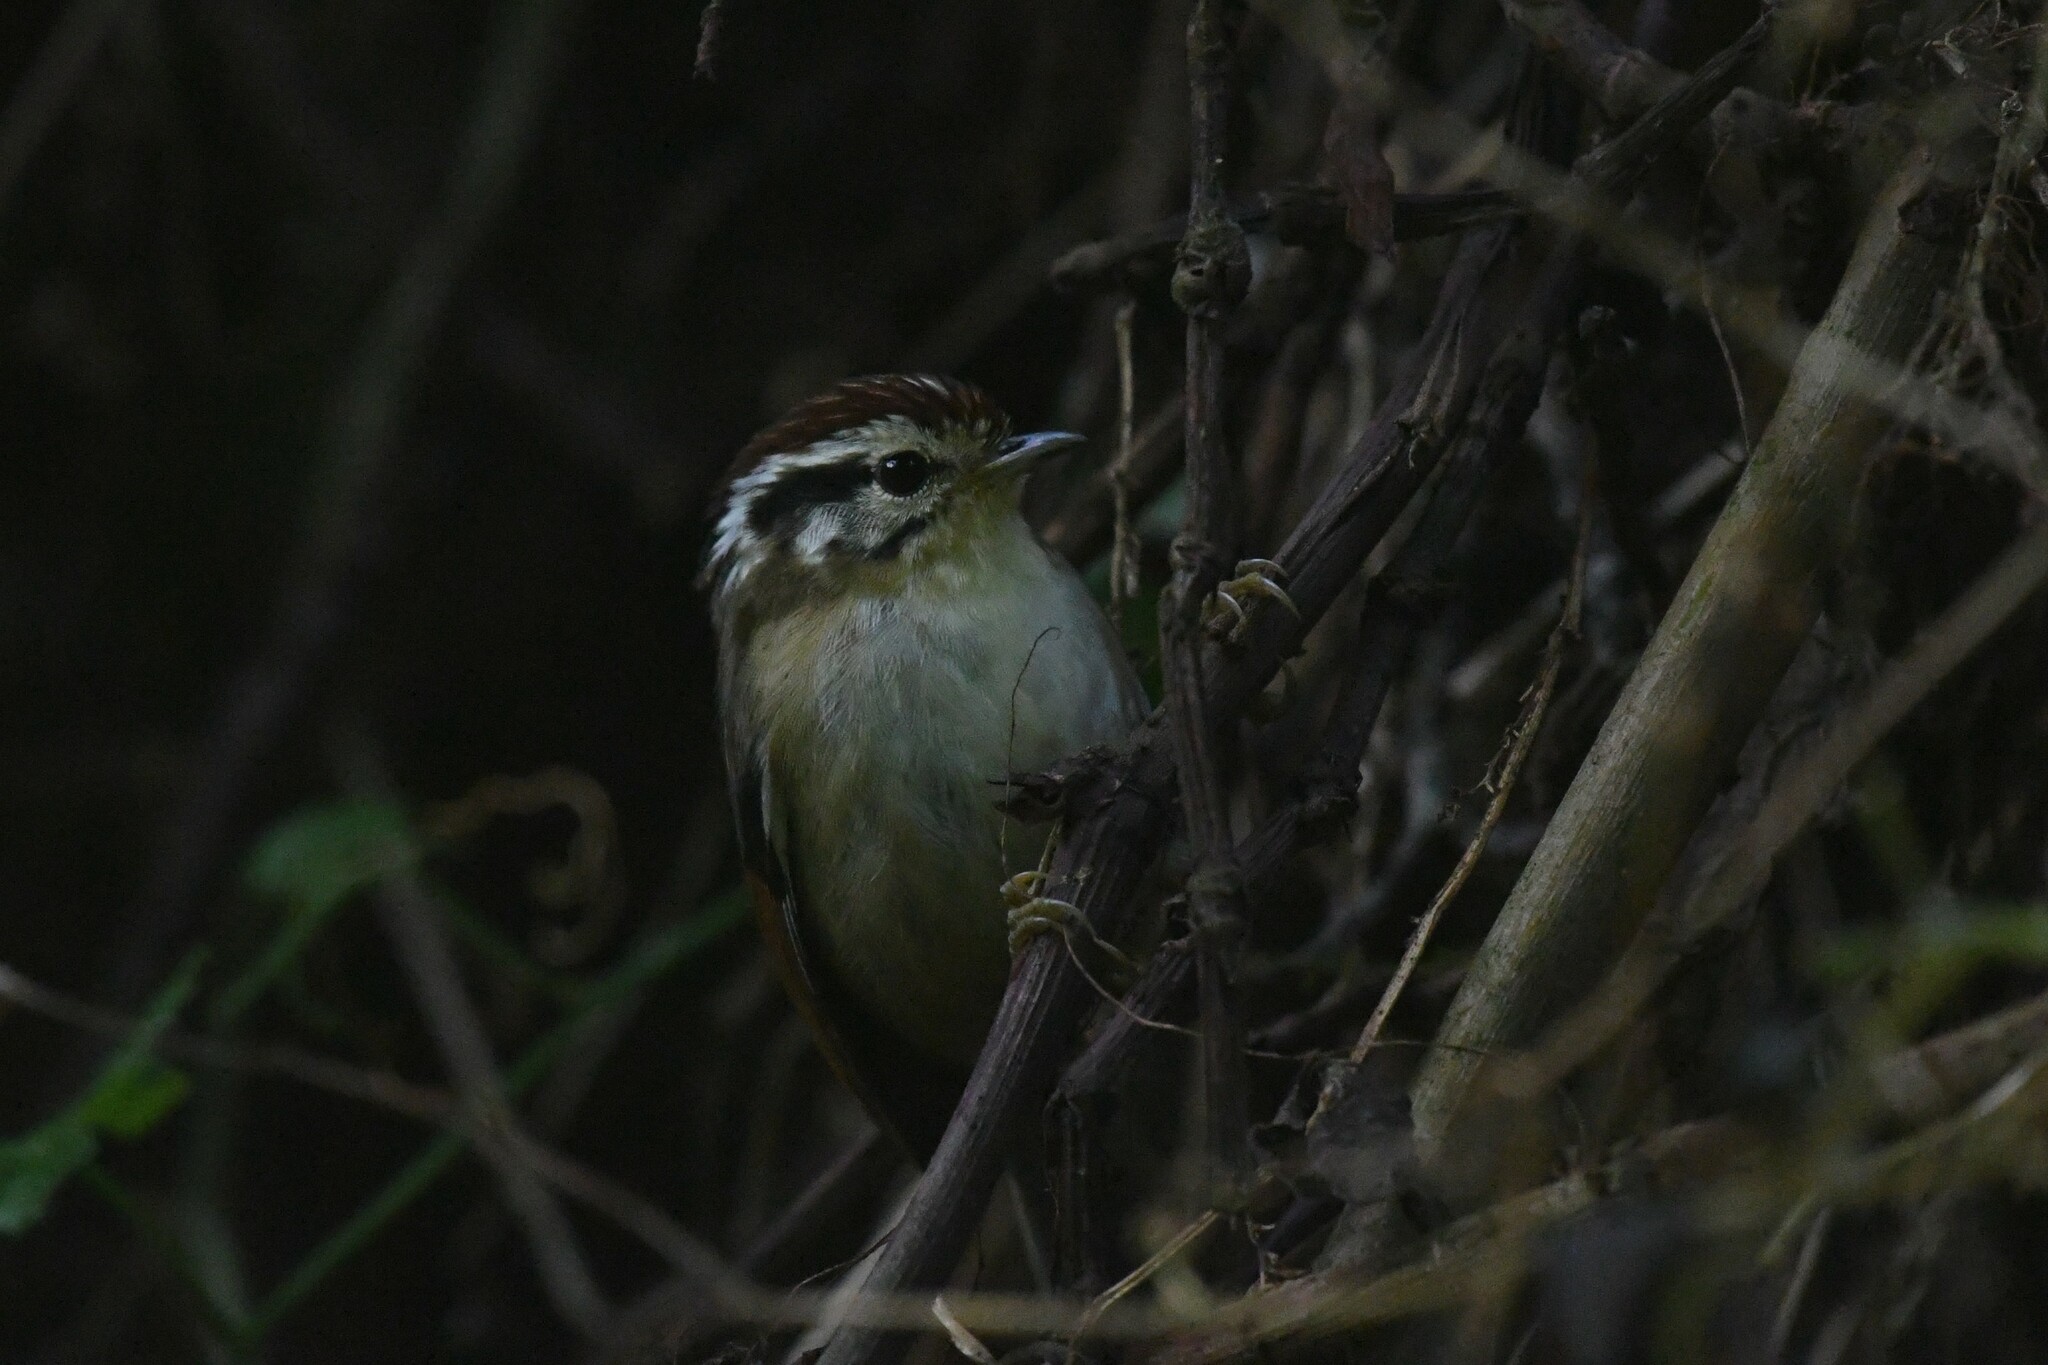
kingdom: Animalia
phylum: Chordata
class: Aves
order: Passeriformes
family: Pellorneidae
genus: Alcippe
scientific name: Alcippe castaneceps
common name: Rufous-winged fulvetta
